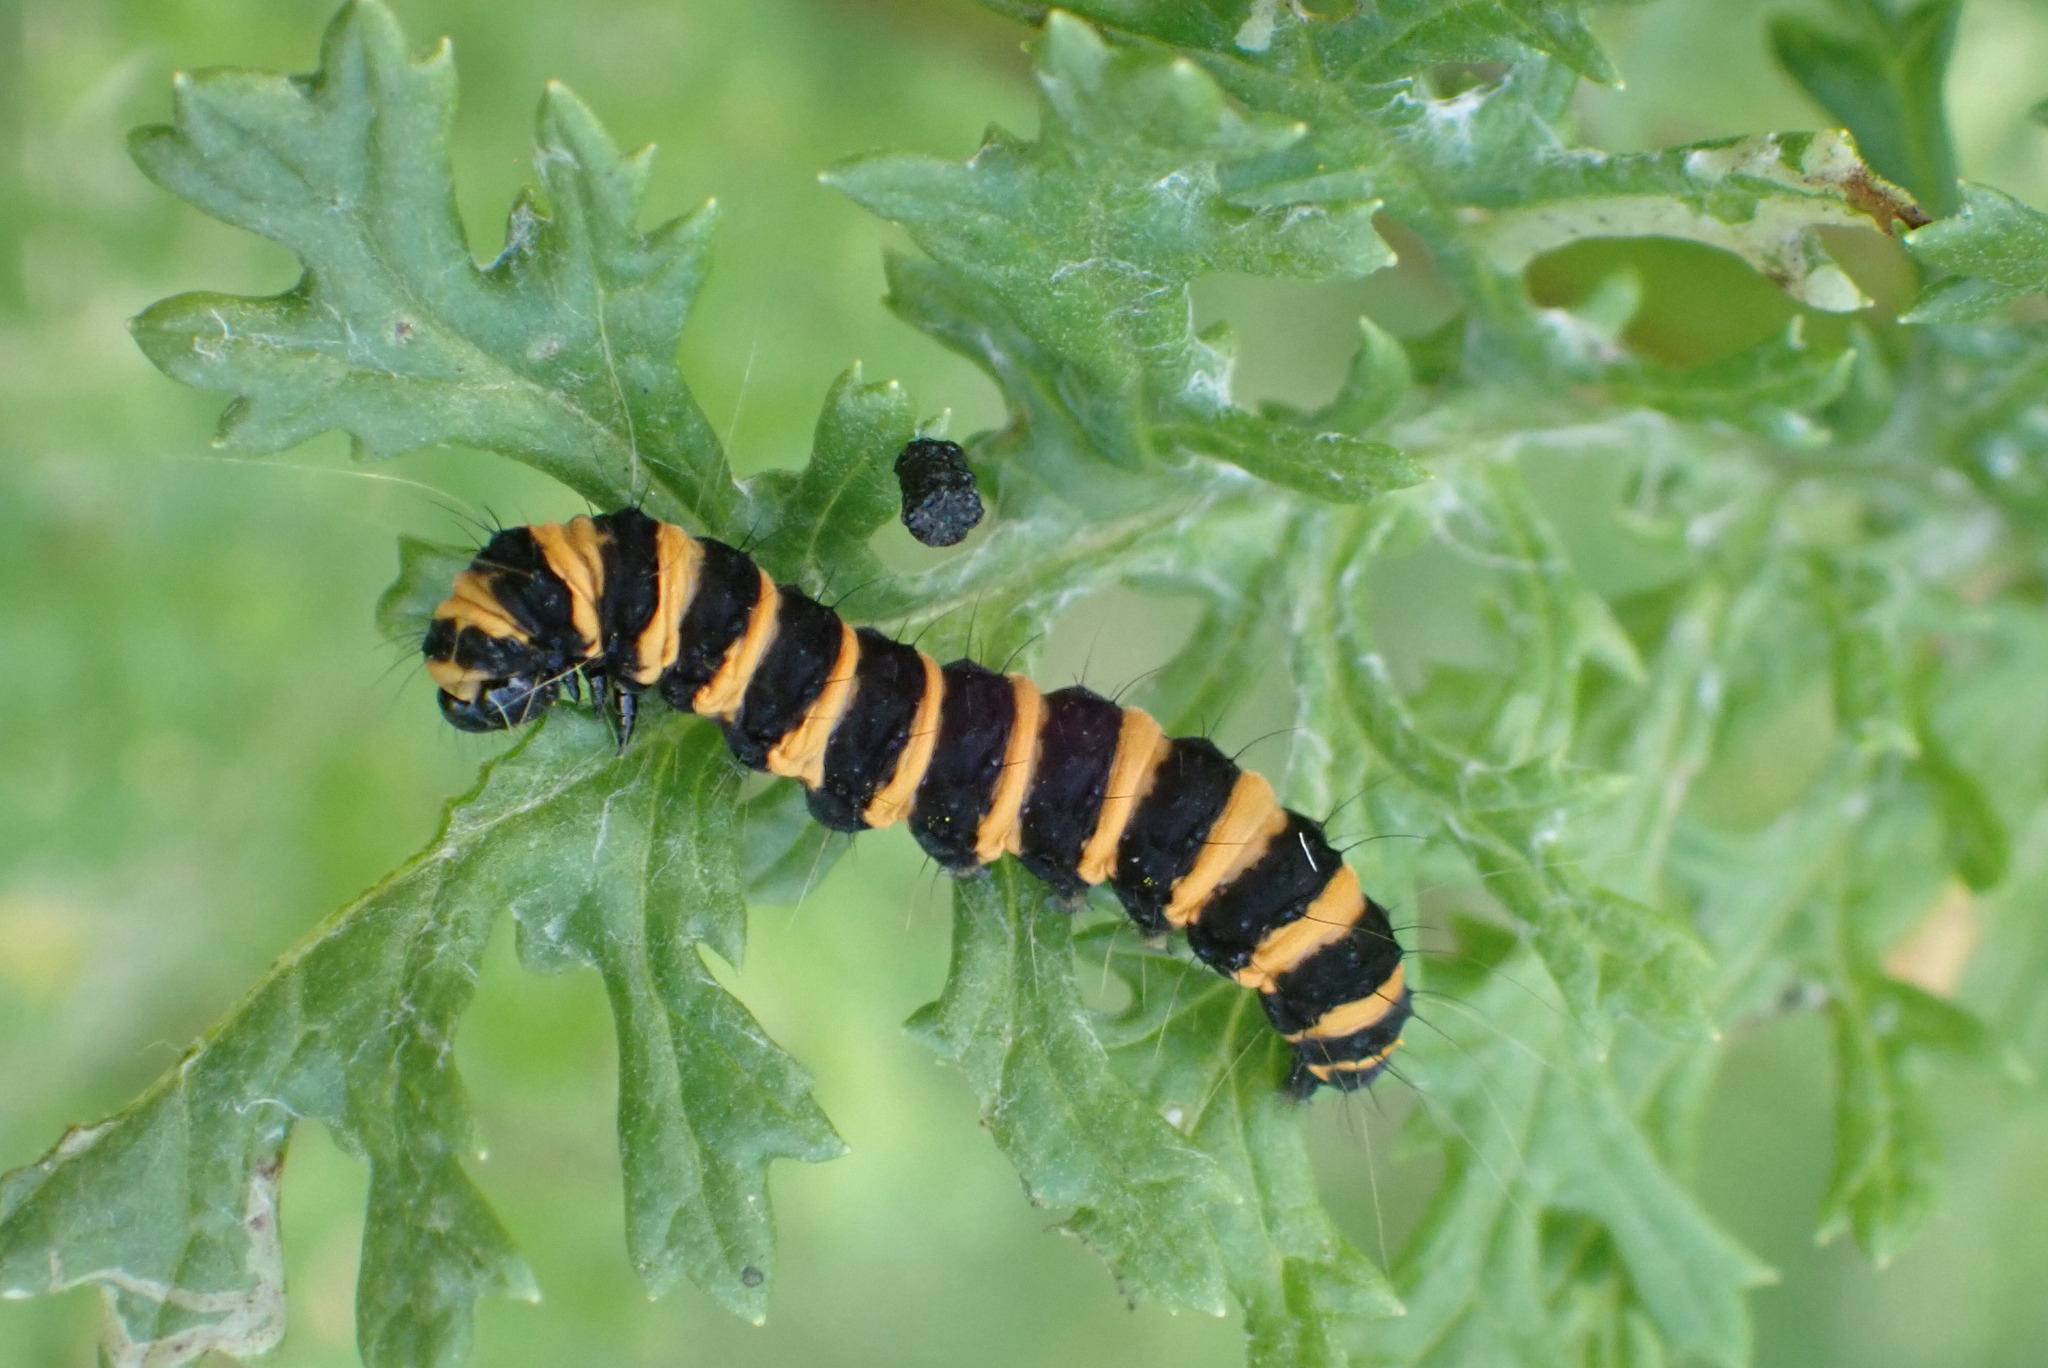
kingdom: Animalia
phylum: Arthropoda
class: Insecta
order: Lepidoptera
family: Erebidae
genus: Tyria
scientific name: Tyria jacobaeae
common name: Cinnabar
